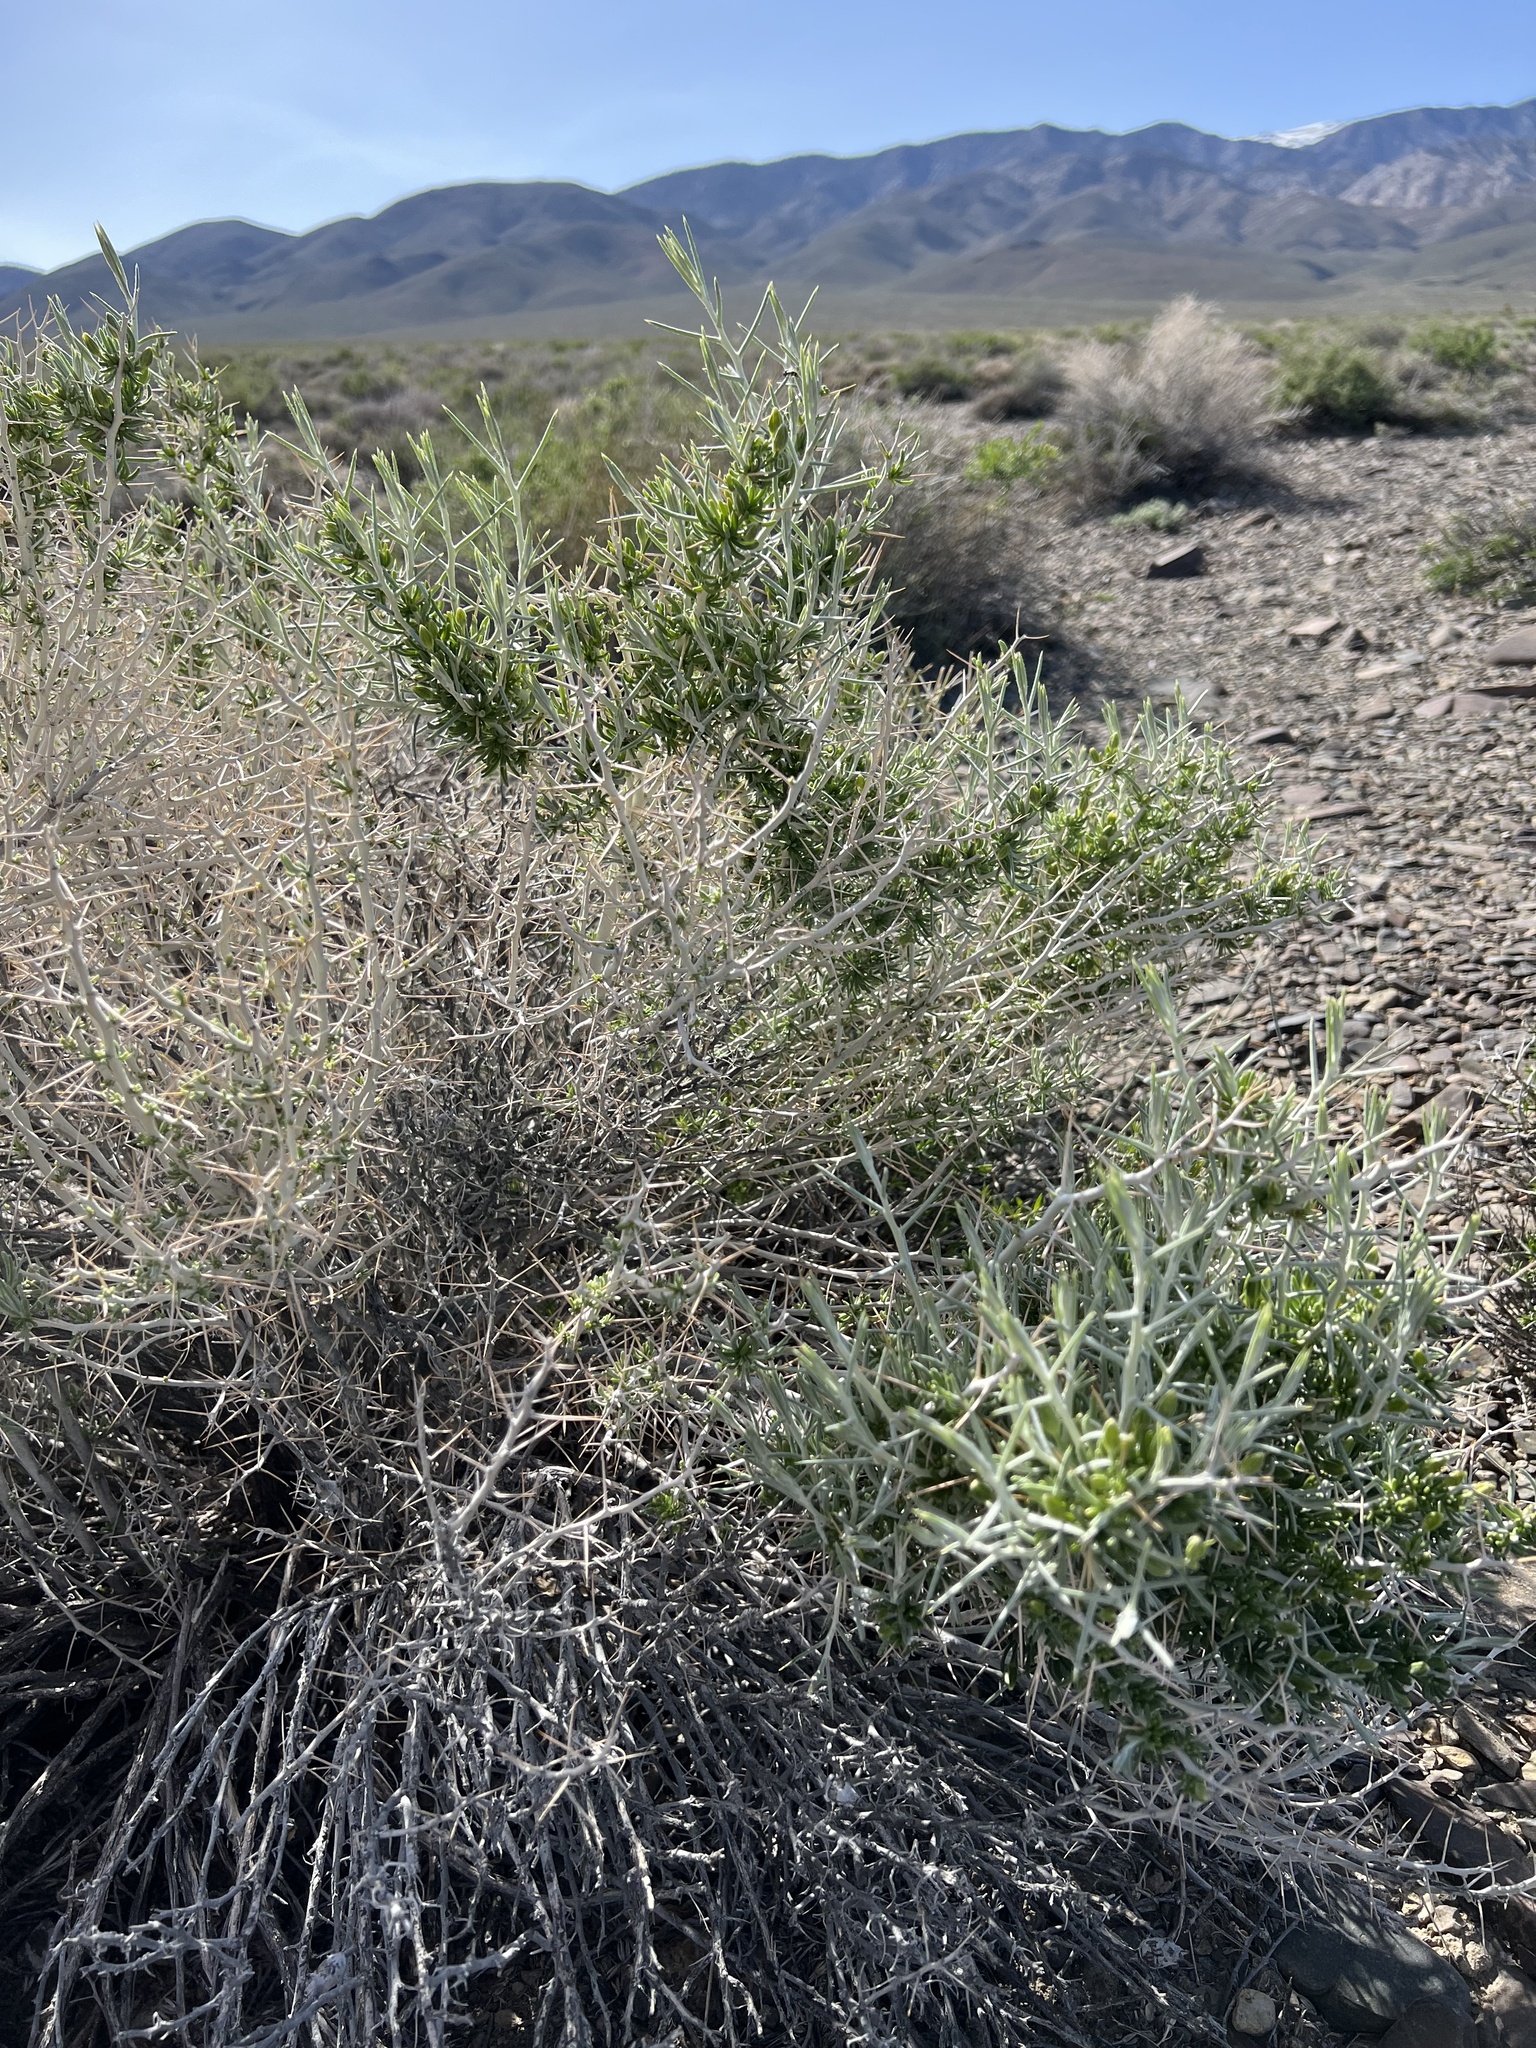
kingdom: Plantae
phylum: Tracheophyta
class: Magnoliopsida
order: Asterales
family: Asteraceae
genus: Tetradymia
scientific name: Tetradymia axillaris
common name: Long-spine horsebrush
